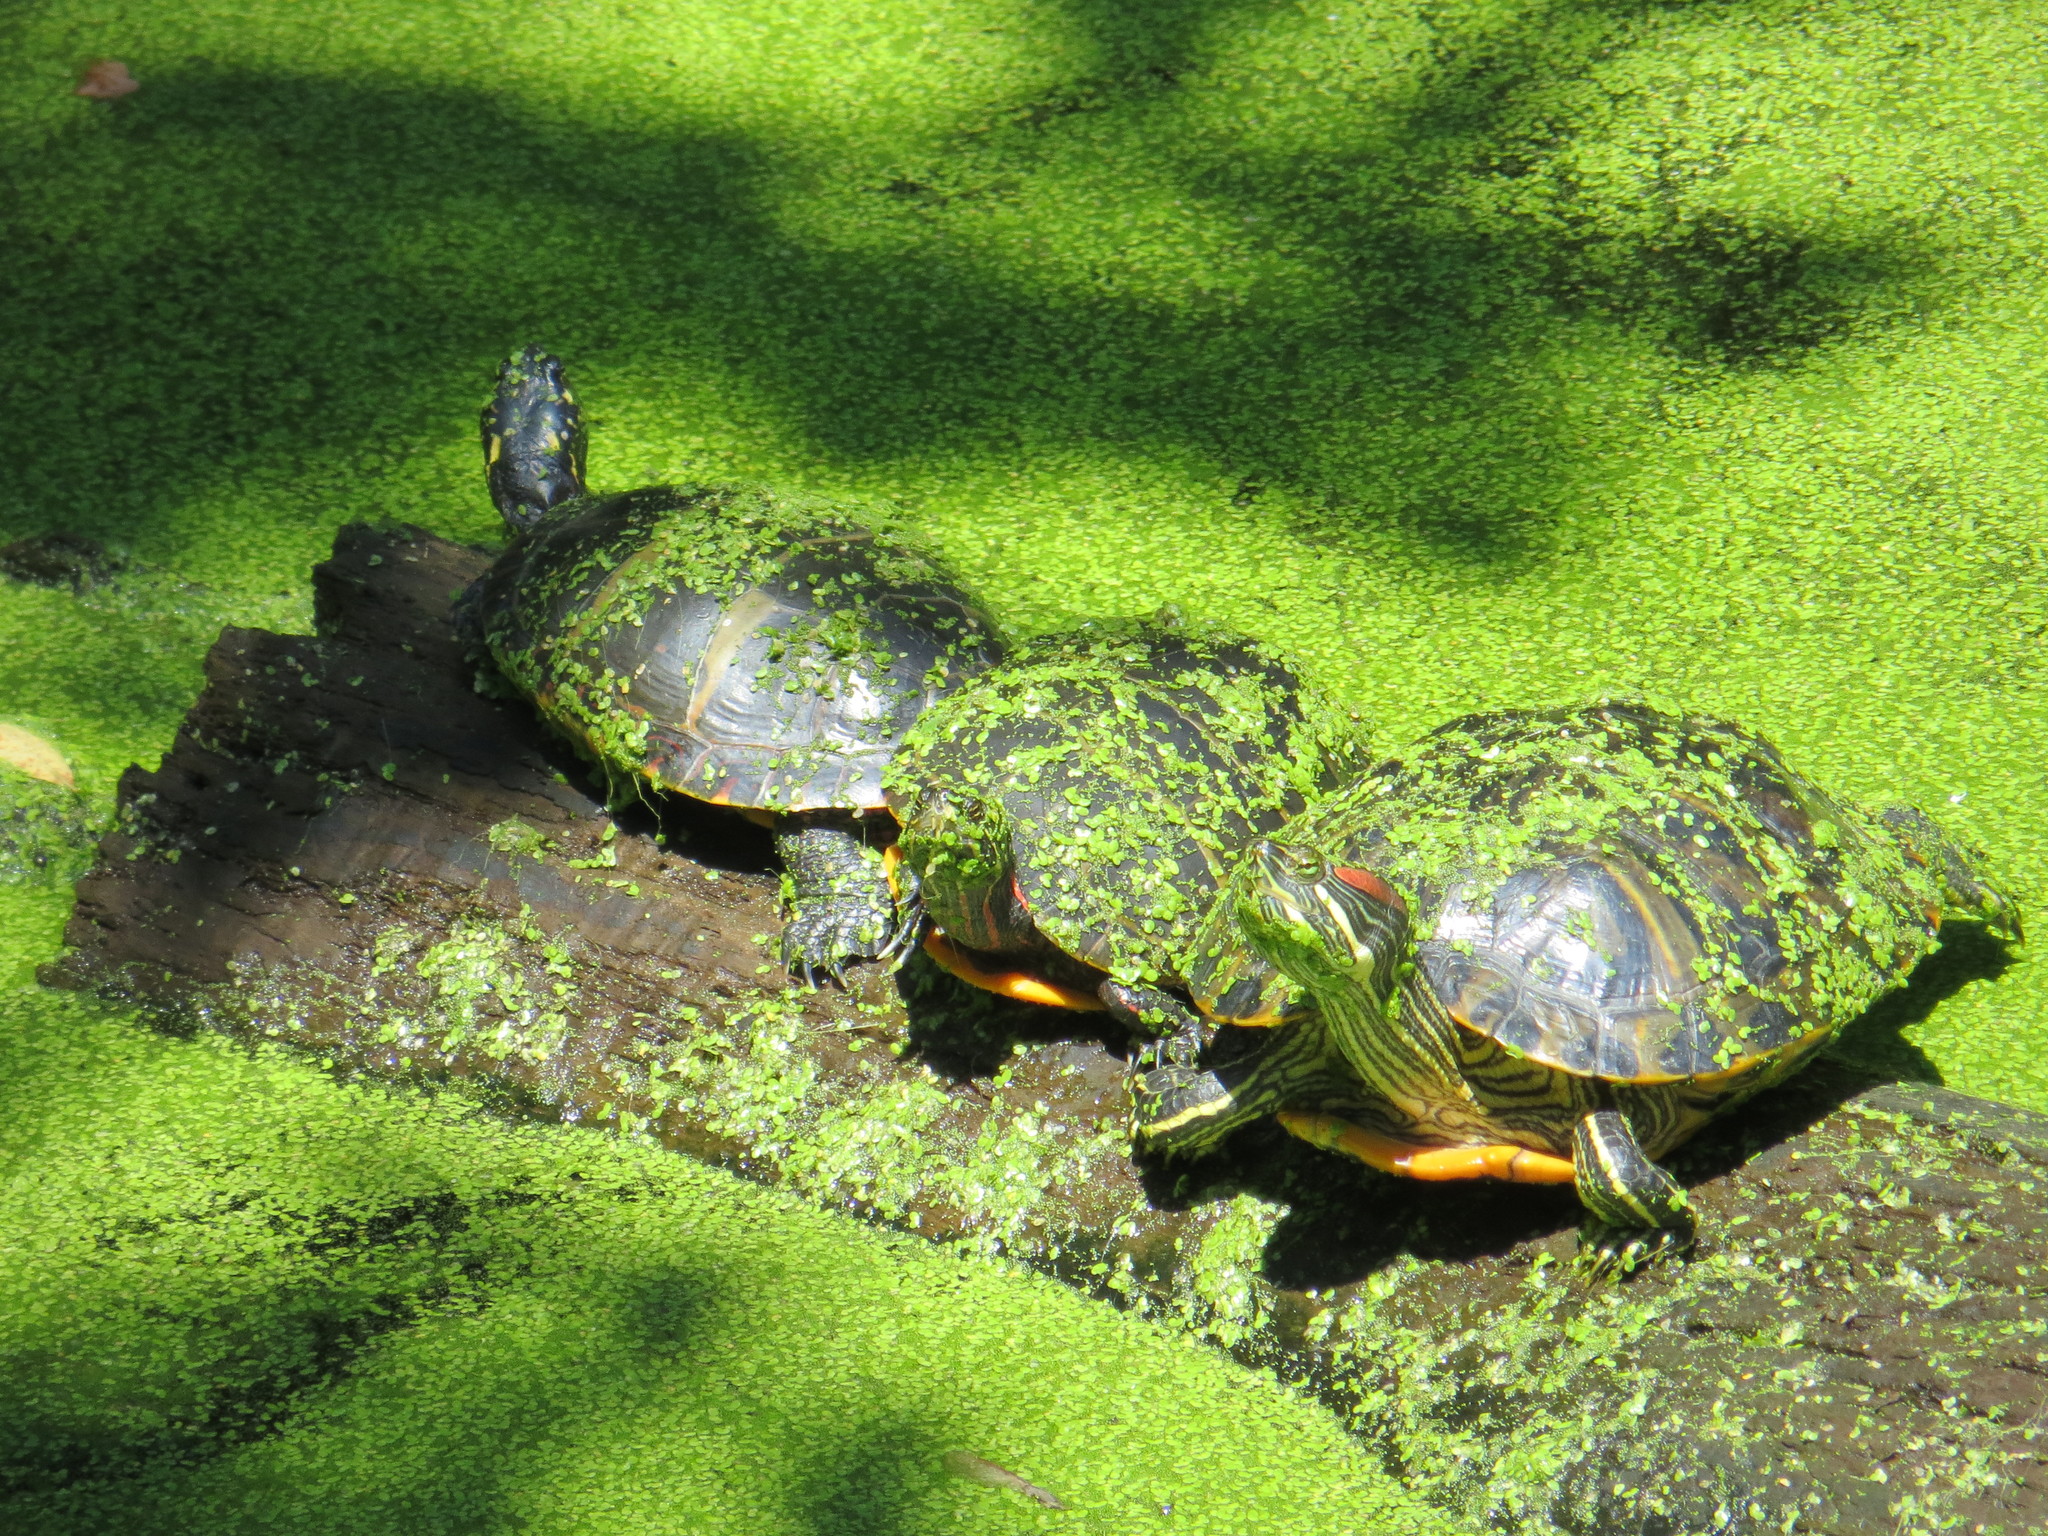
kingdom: Animalia
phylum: Chordata
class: Testudines
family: Emydidae
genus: Trachemys
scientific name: Trachemys scripta
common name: Slider
